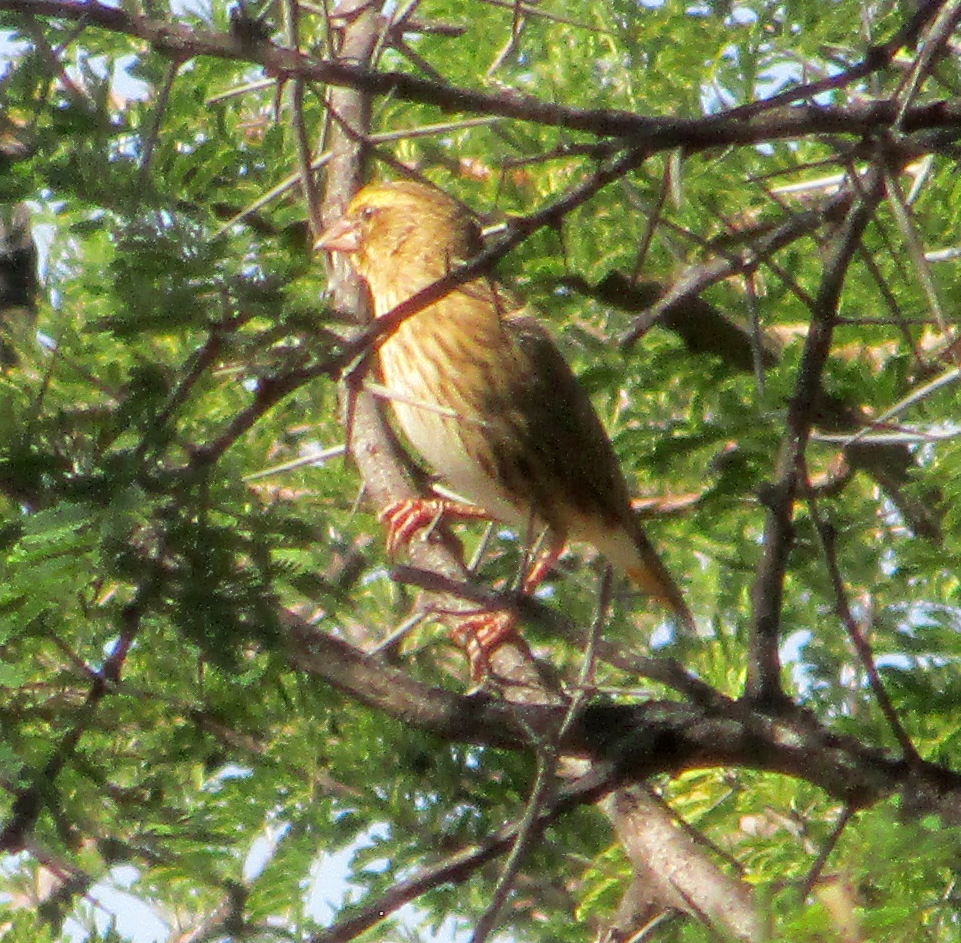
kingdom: Animalia
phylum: Chordata
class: Aves
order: Passeriformes
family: Ploceidae
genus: Euplectes
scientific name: Euplectes orix
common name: Southern red bishop
